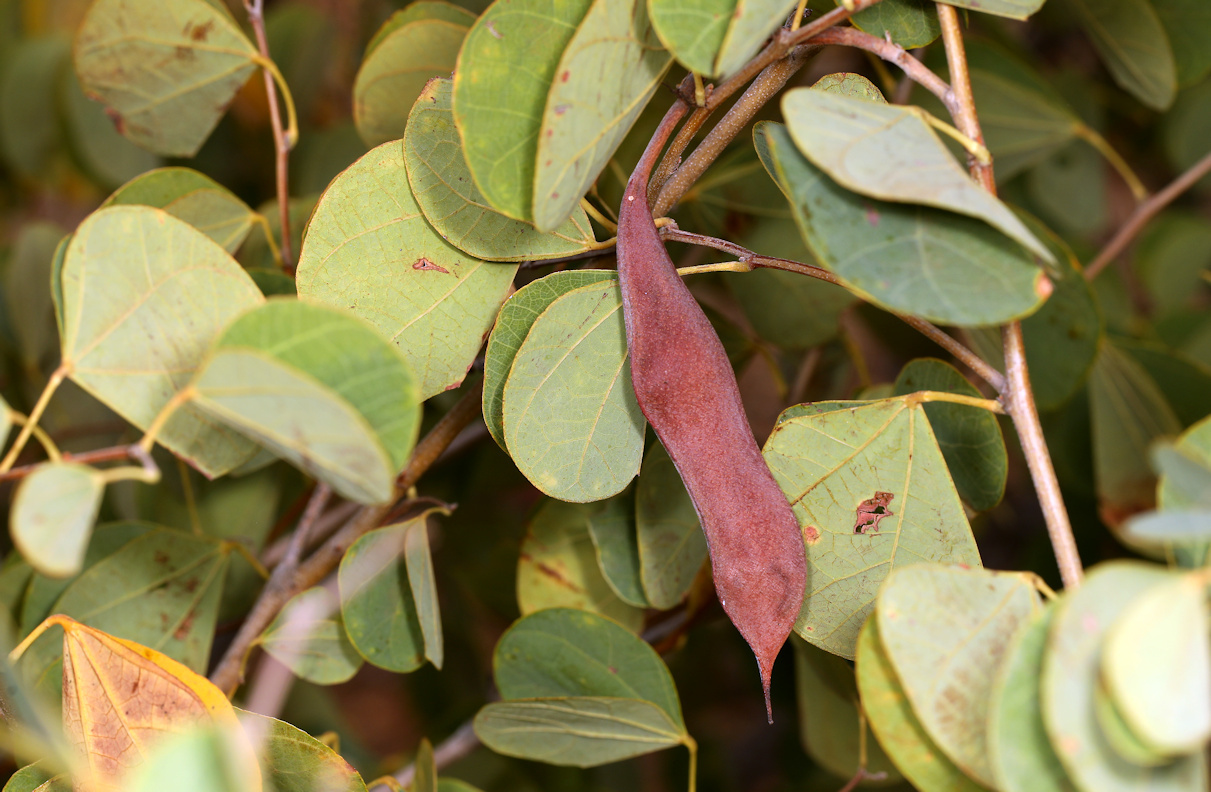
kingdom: Plantae
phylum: Tracheophyta
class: Magnoliopsida
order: Fabales
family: Fabaceae
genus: Bauhinia
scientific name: Bauhinia galpinii
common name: African plume
